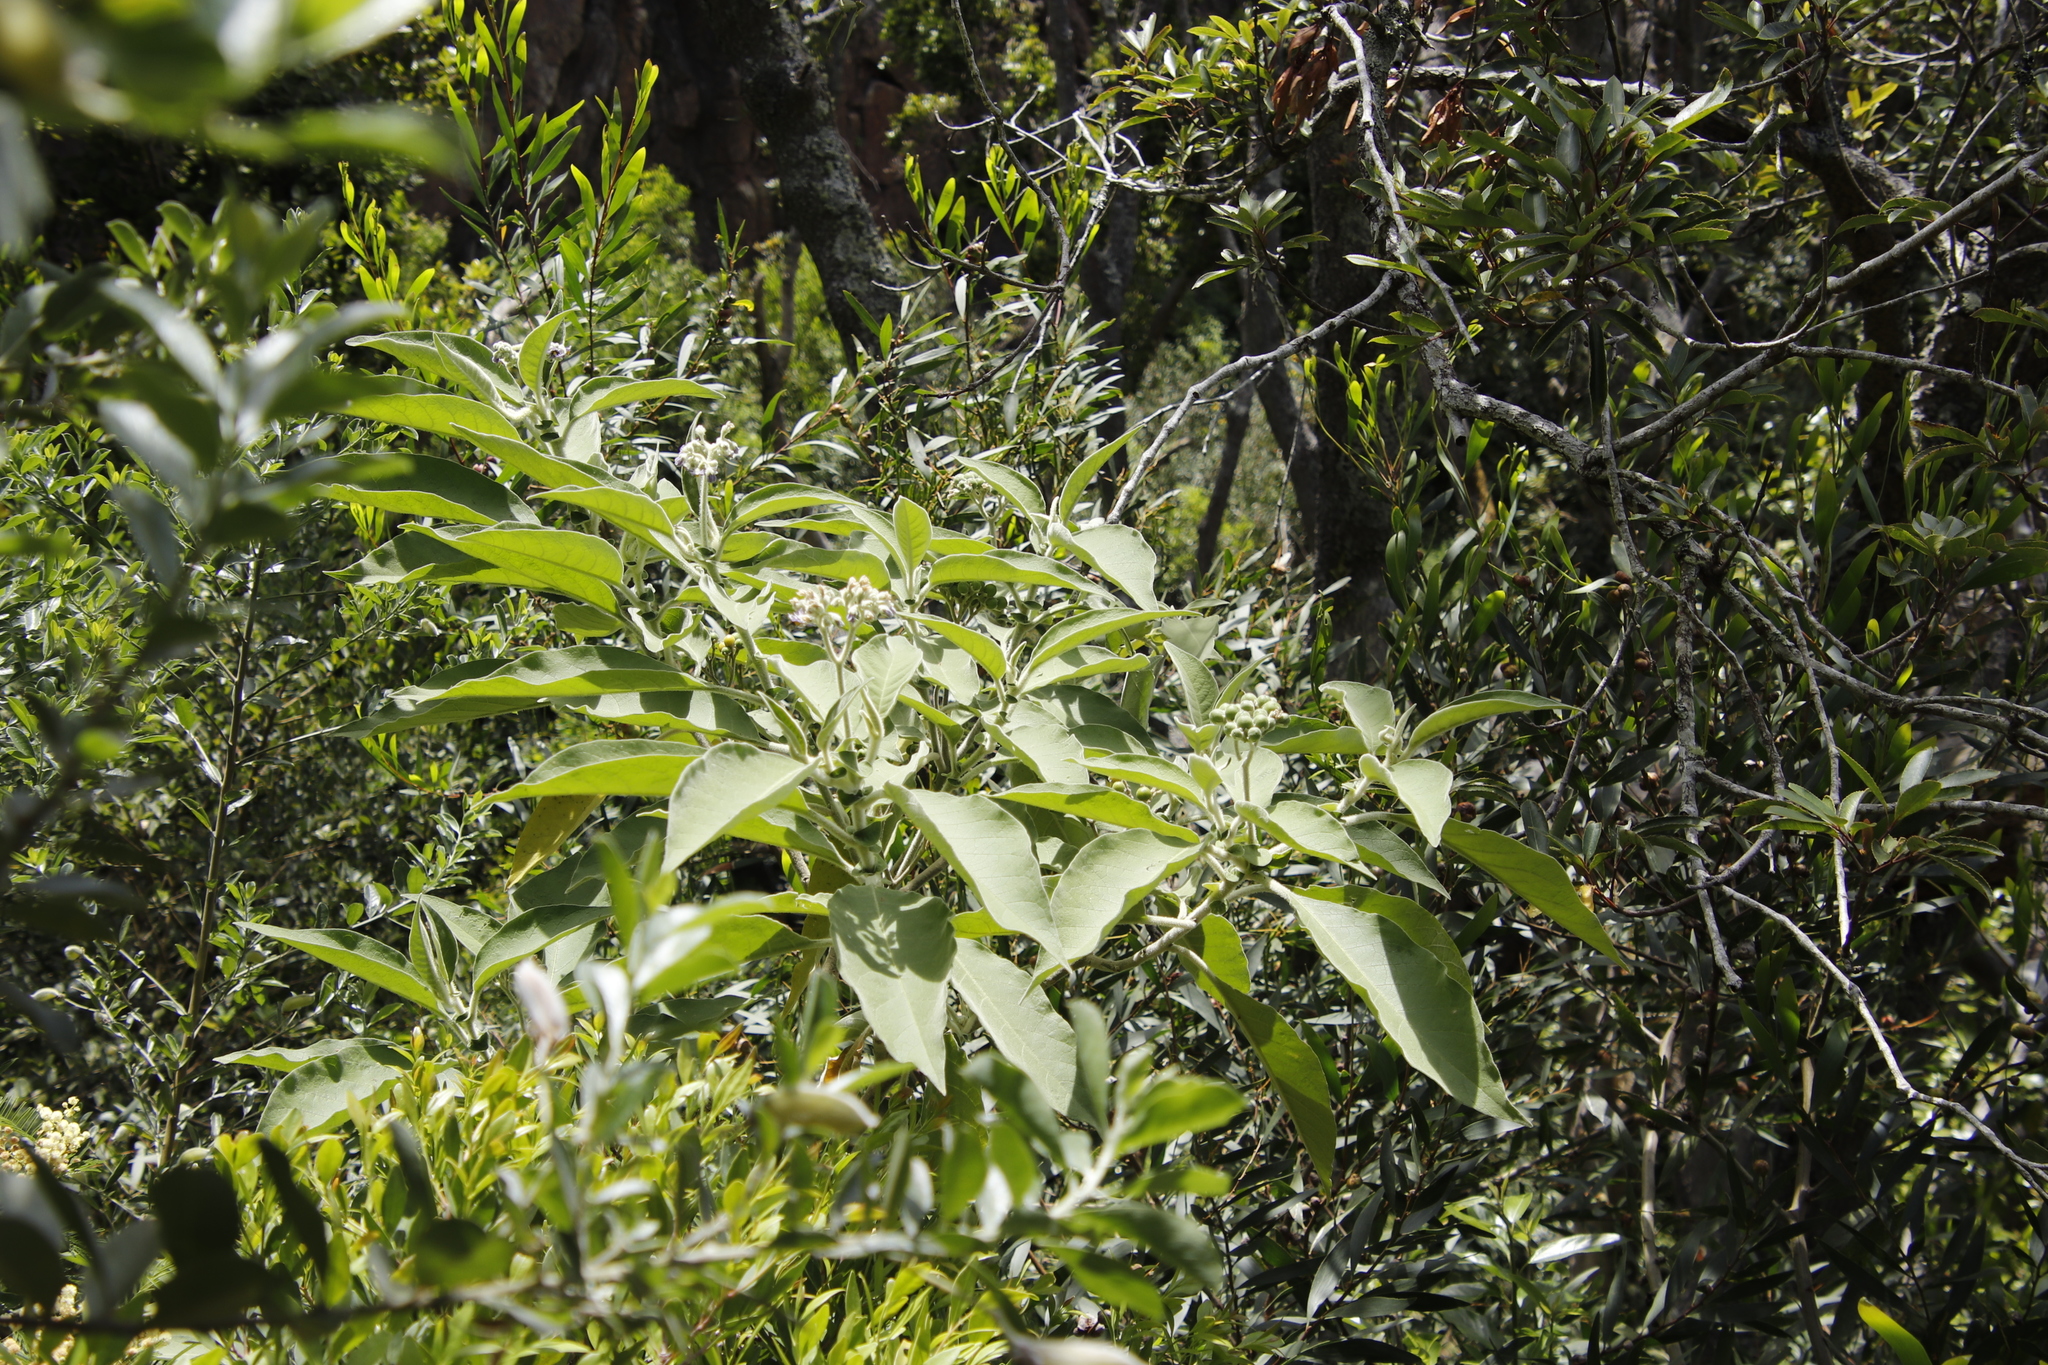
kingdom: Plantae
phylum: Tracheophyta
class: Magnoliopsida
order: Solanales
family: Solanaceae
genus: Solanum
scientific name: Solanum mauritianum
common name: Earleaf nightshade
